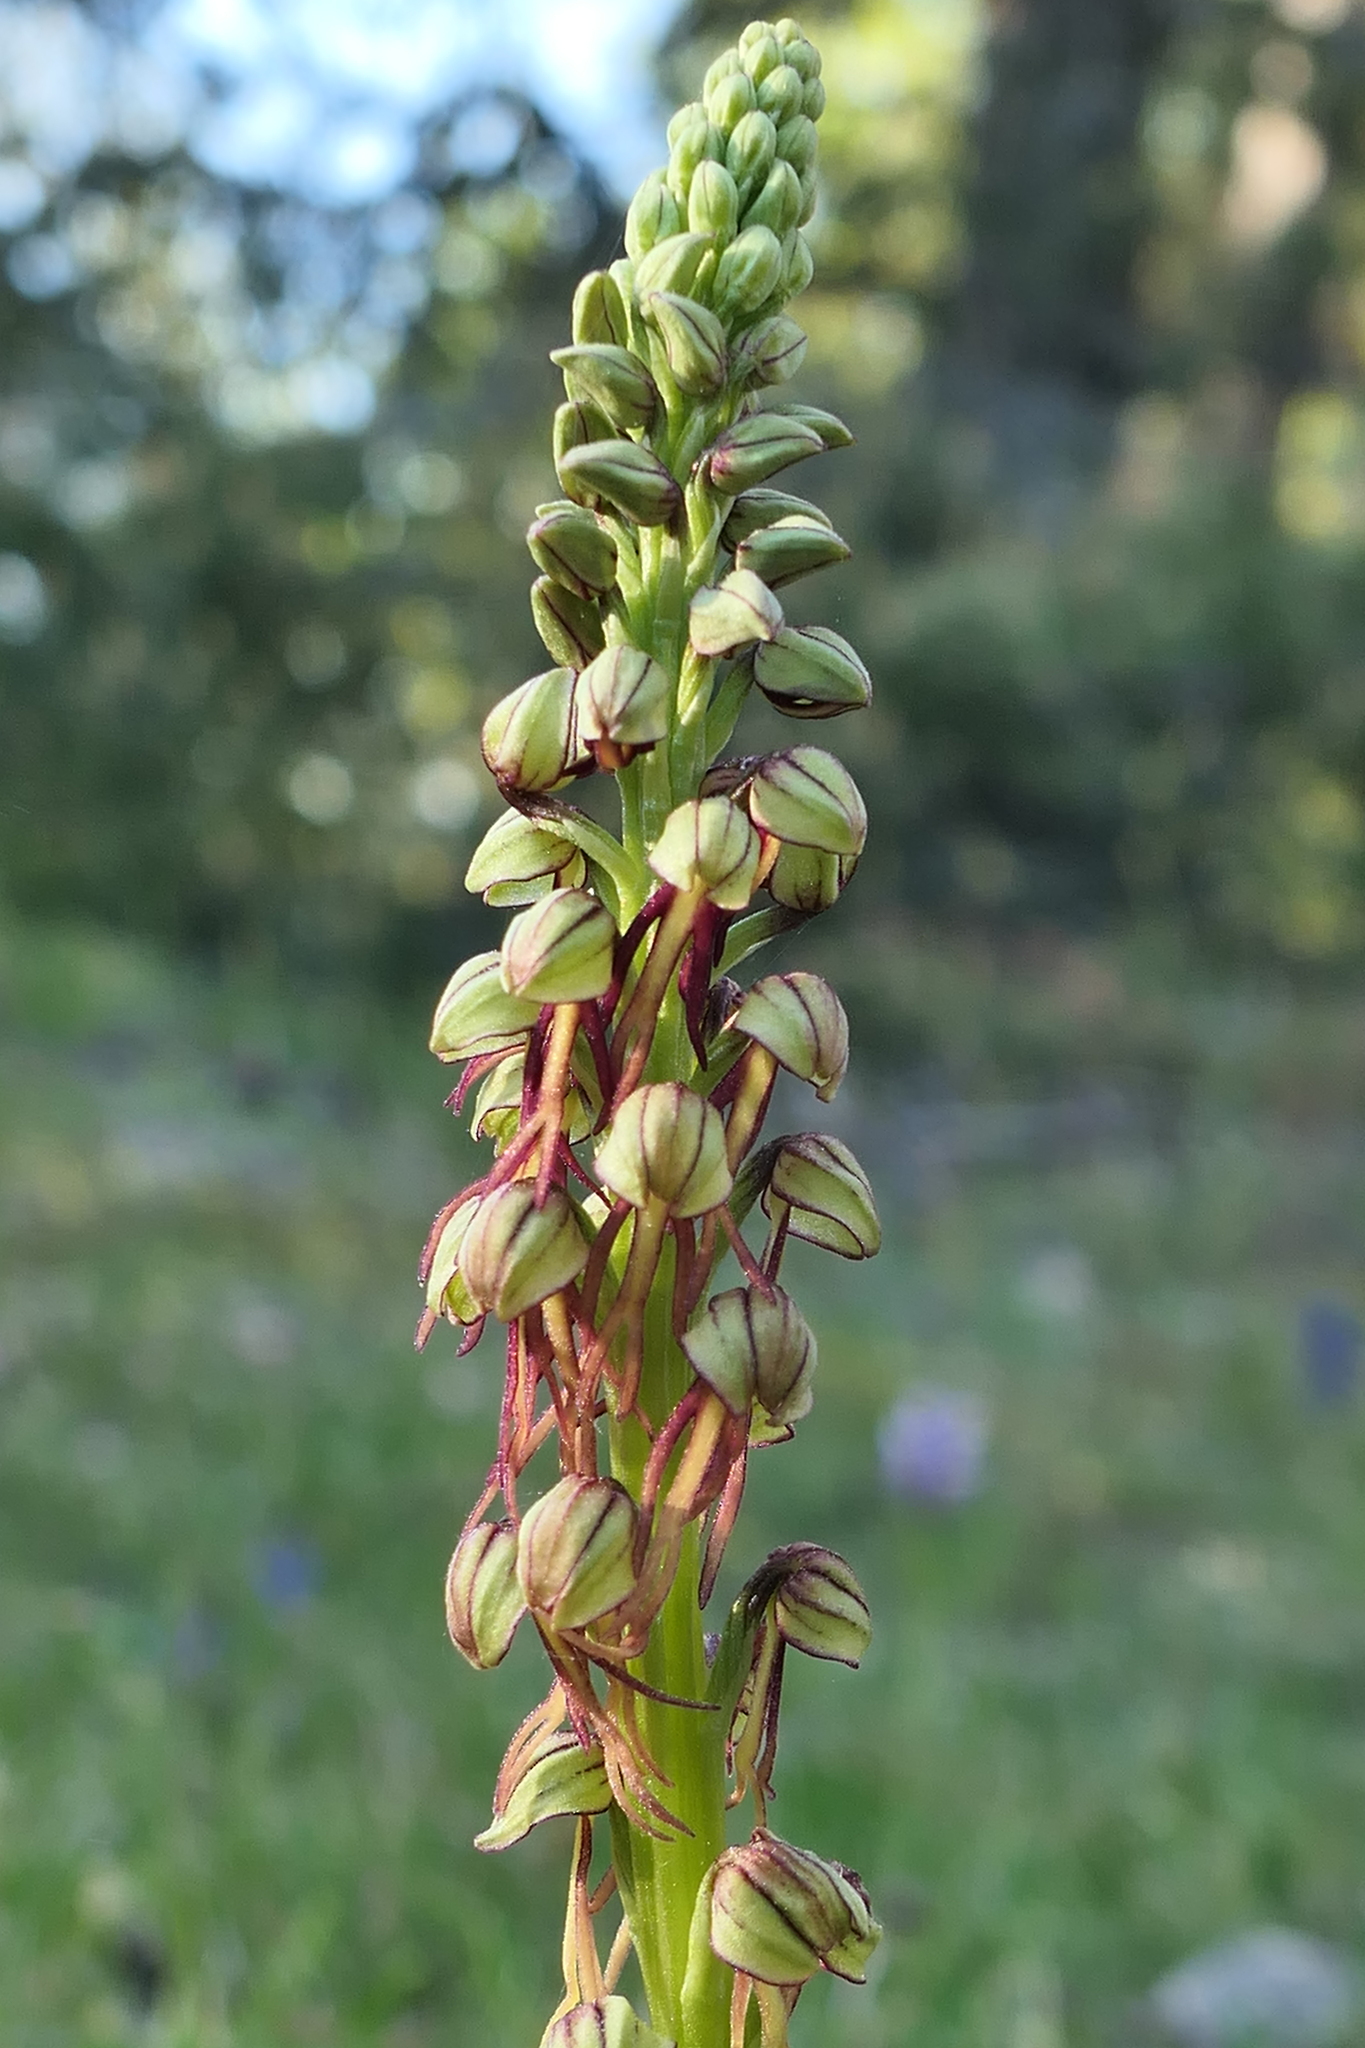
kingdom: Plantae
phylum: Tracheophyta
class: Liliopsida
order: Asparagales
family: Orchidaceae
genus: Orchis
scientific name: Orchis anthropophora
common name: Man orchid
